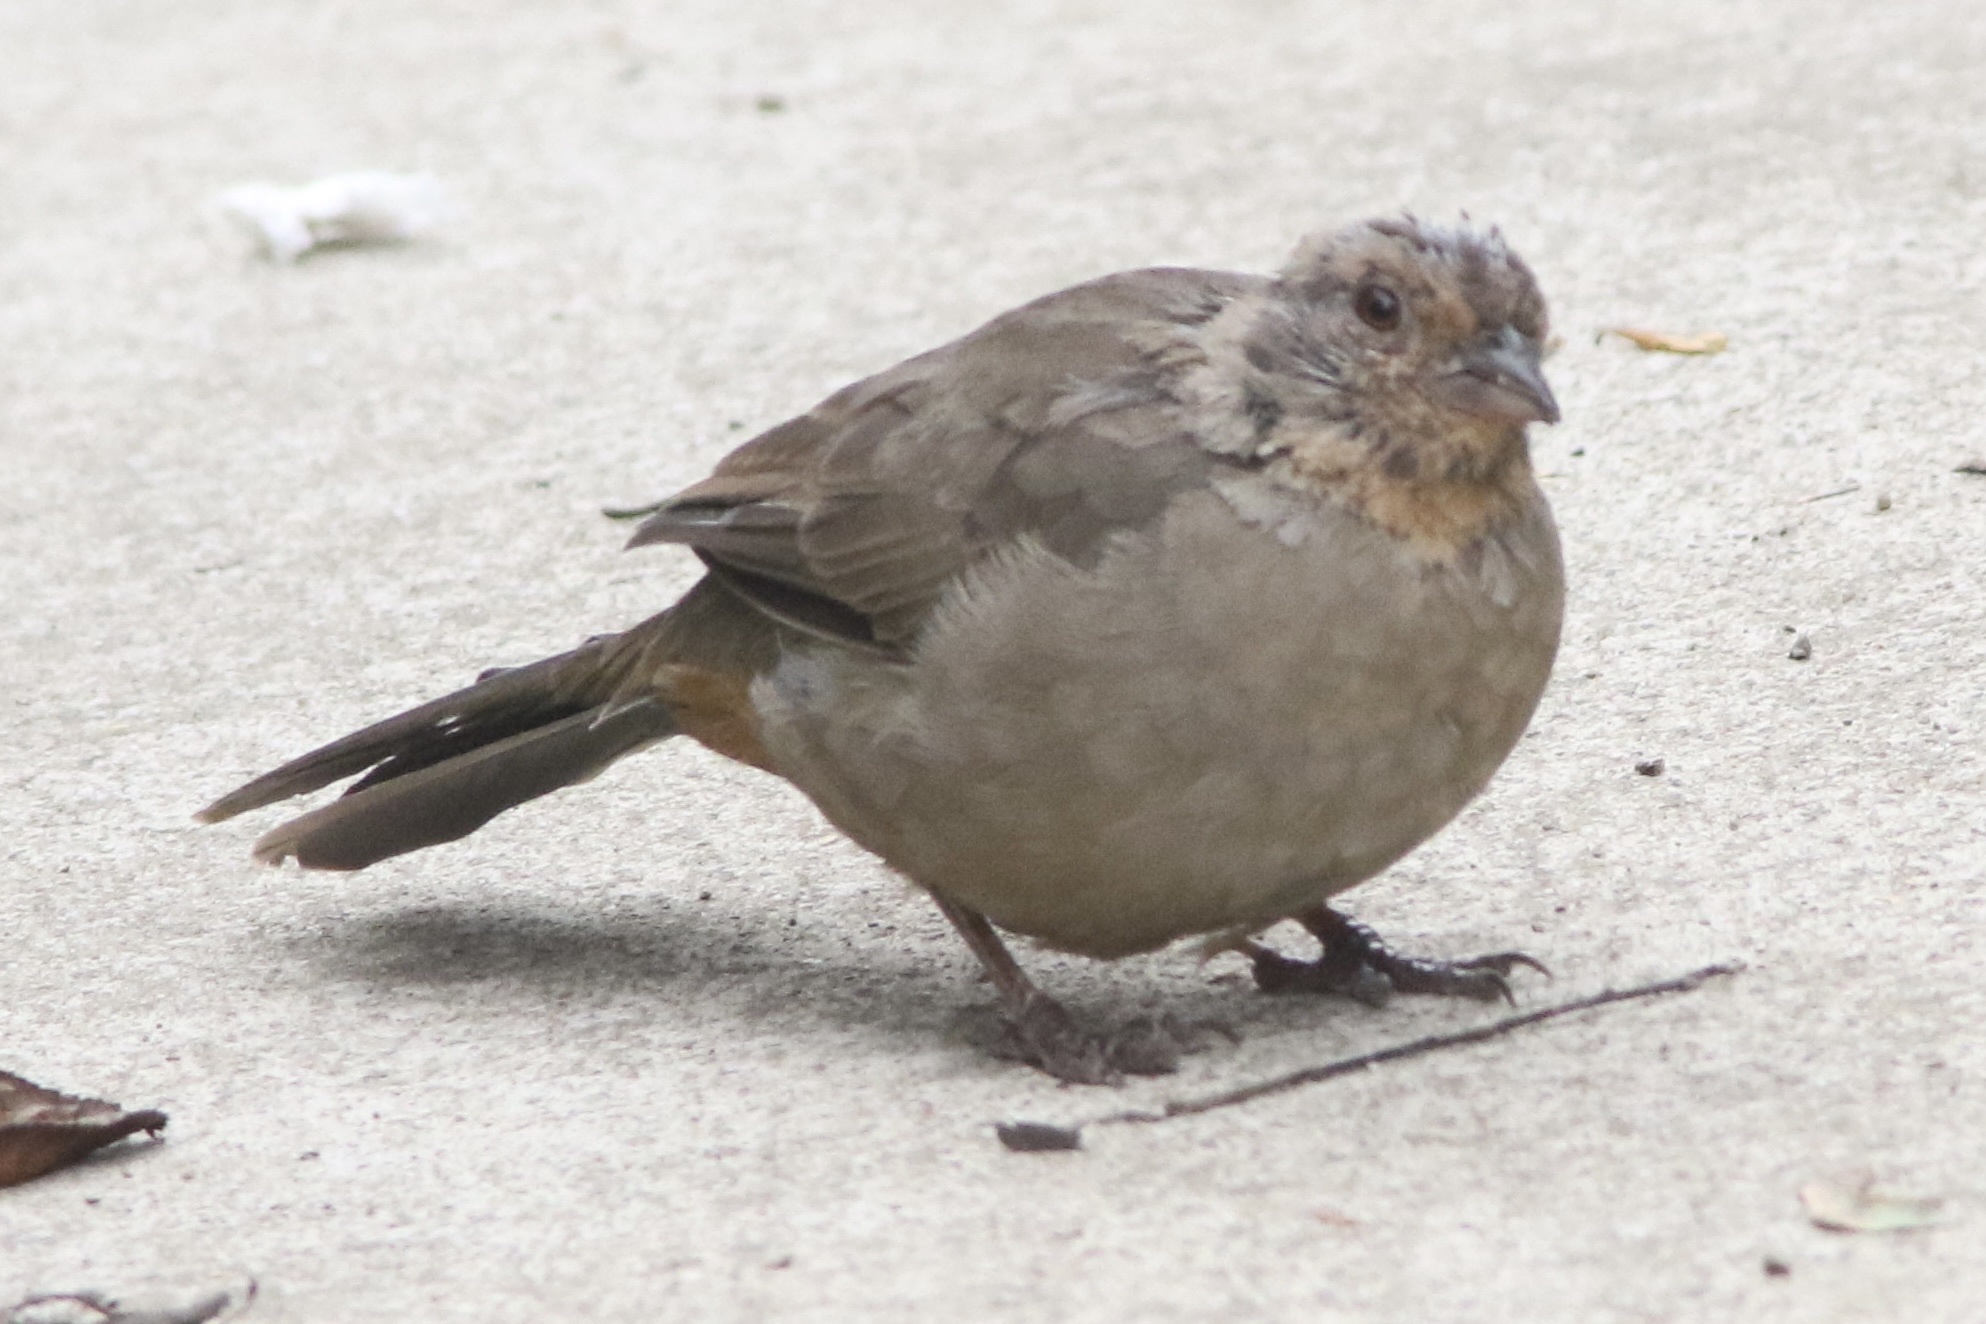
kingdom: Animalia
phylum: Chordata
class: Aves
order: Passeriformes
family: Passerellidae
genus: Melozone
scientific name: Melozone crissalis
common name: California towhee
